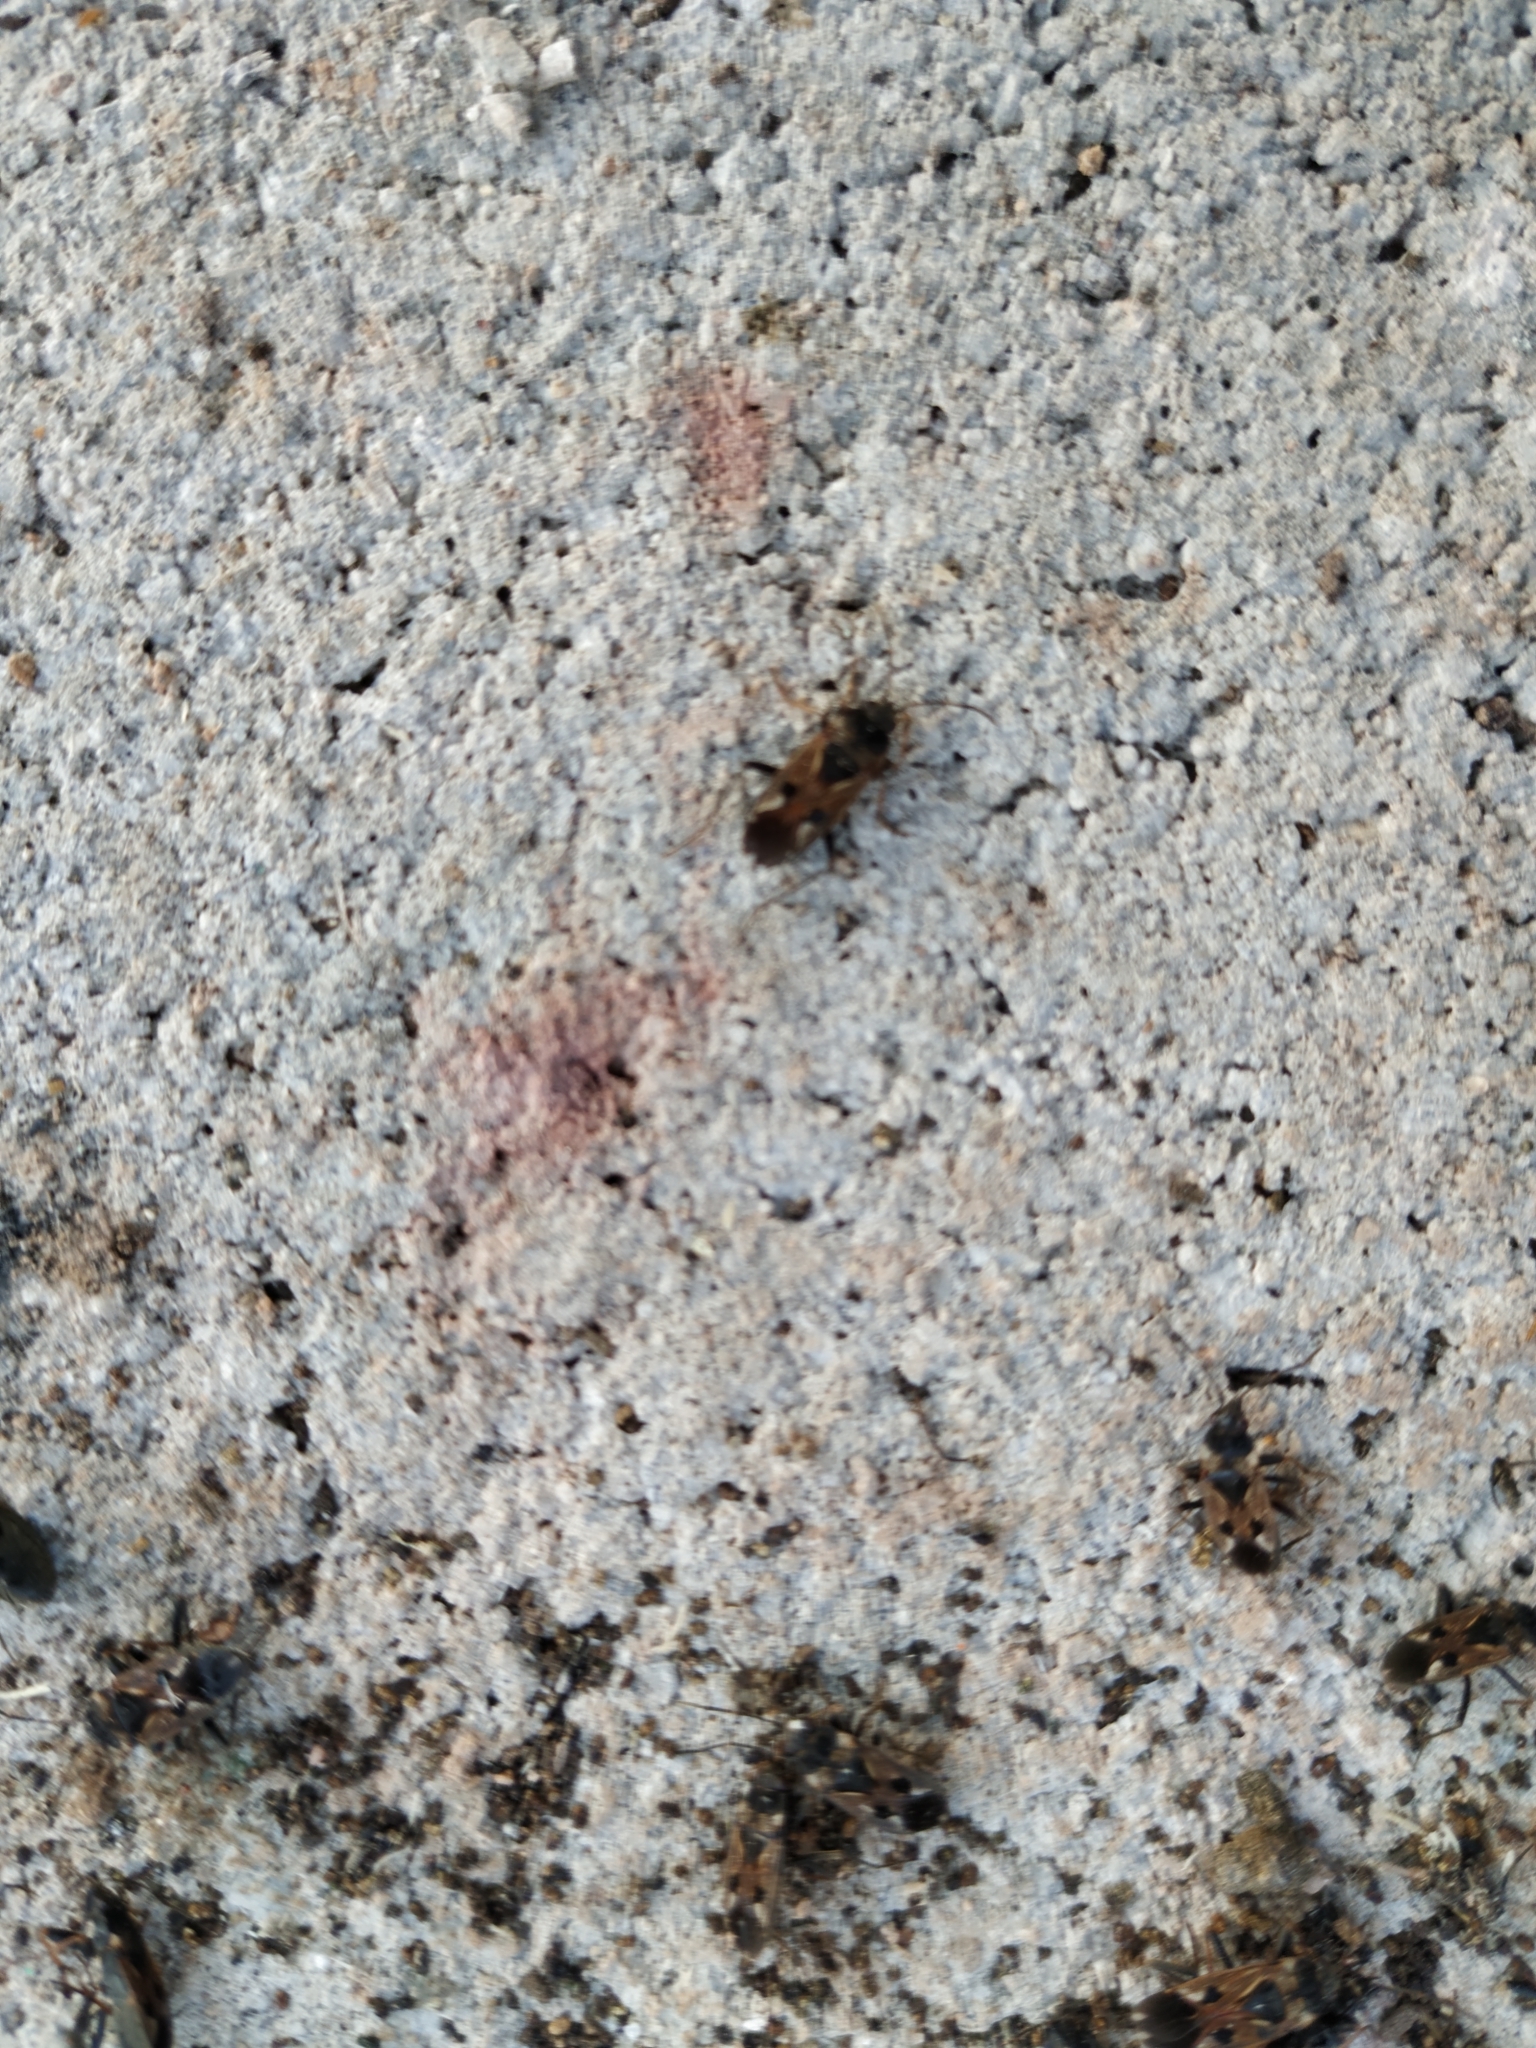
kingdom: Animalia
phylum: Arthropoda
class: Insecta
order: Hemiptera
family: Rhyparochromidae
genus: Rhyparochromus
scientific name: Rhyparochromus vulgaris
